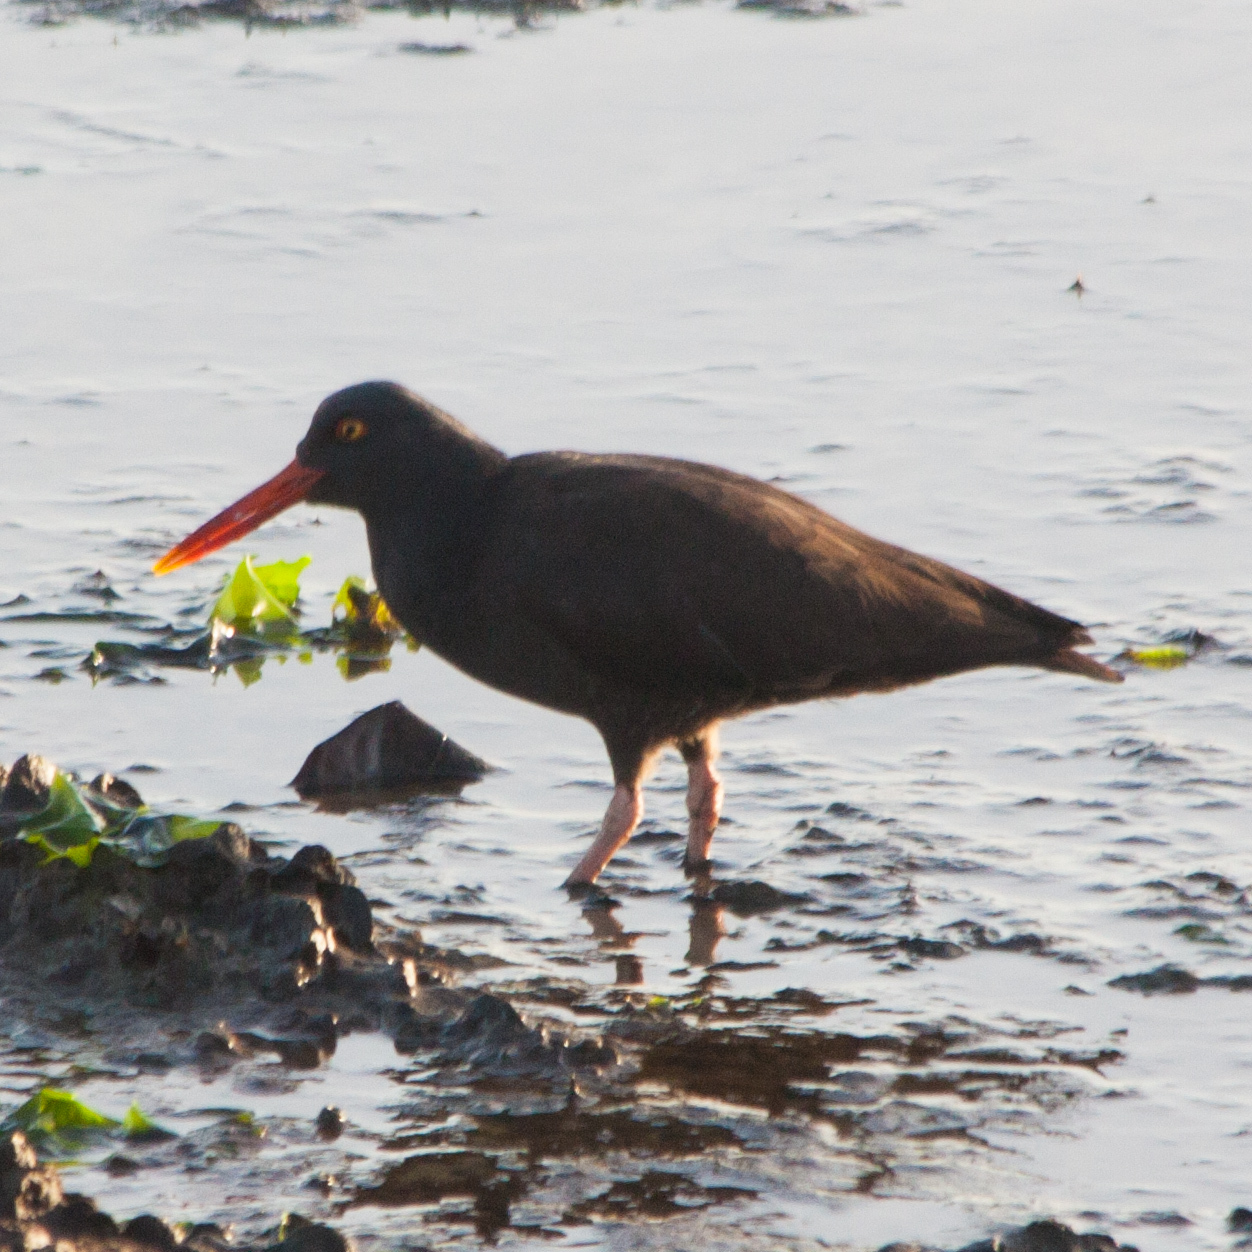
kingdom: Animalia
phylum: Chordata
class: Aves
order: Charadriiformes
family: Haematopodidae
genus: Haematopus
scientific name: Haematopus bachmani
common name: Black oystercatcher
